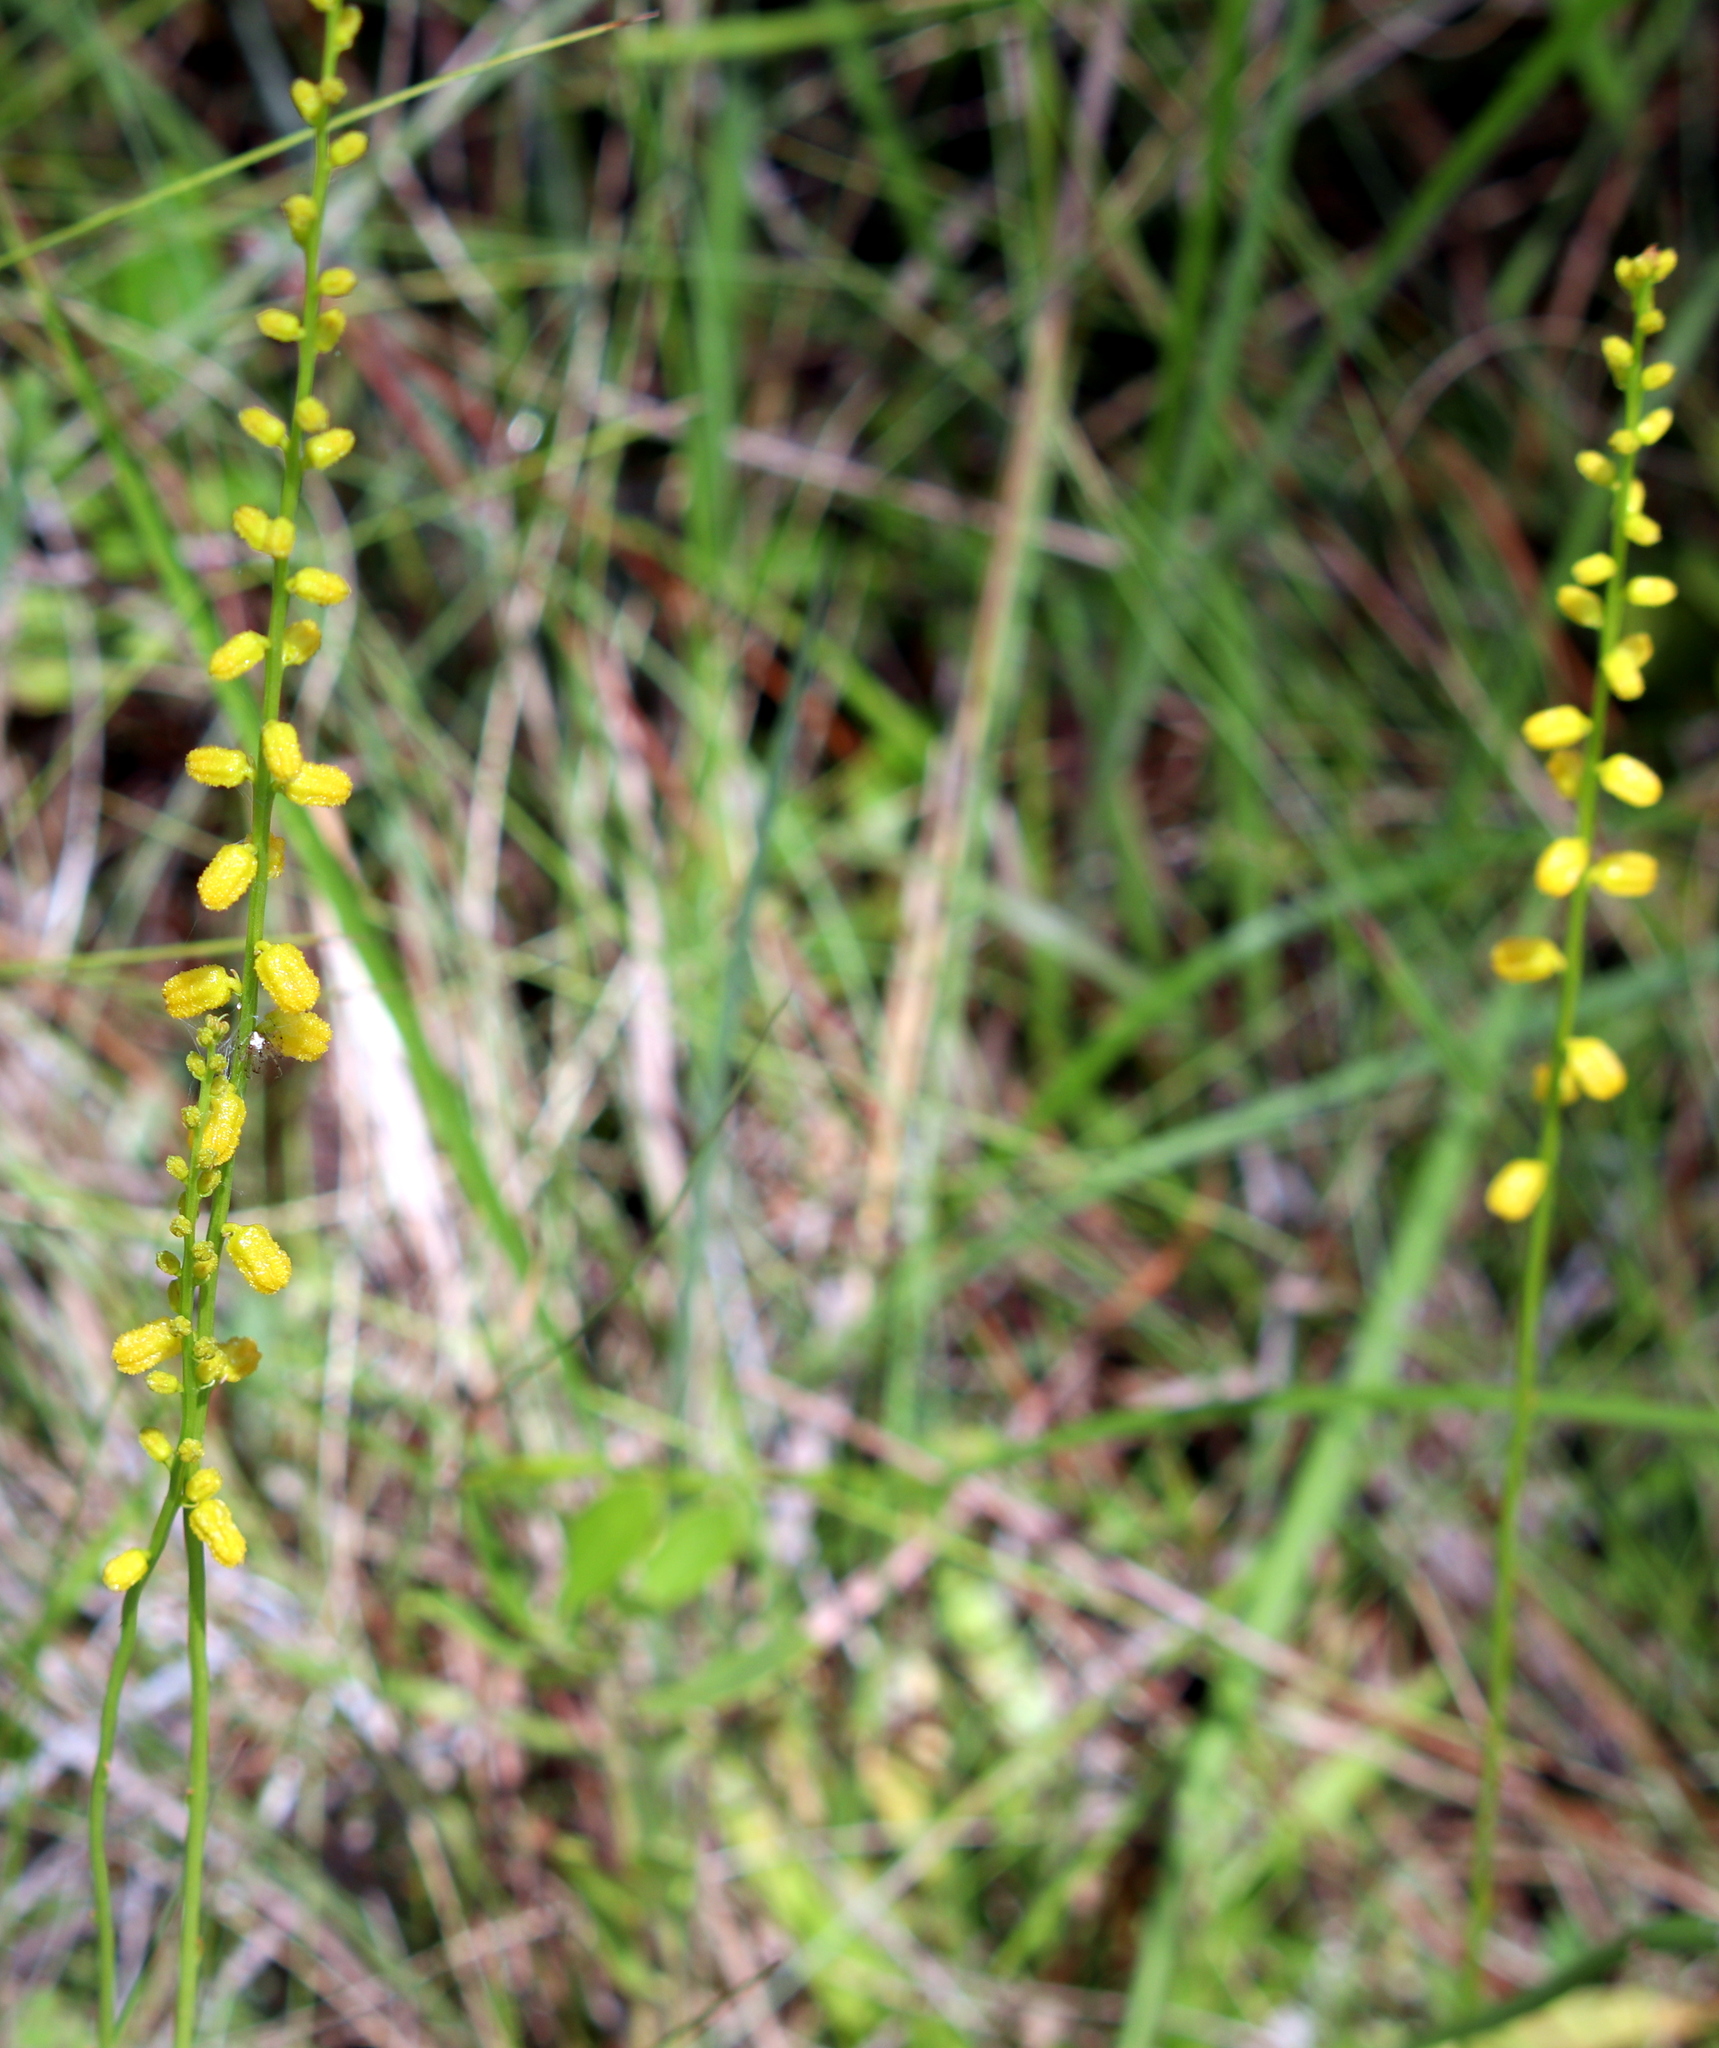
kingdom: Plantae
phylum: Tracheophyta
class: Liliopsida
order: Dioscoreales
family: Nartheciaceae
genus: Aletris
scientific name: Aletris aurea
